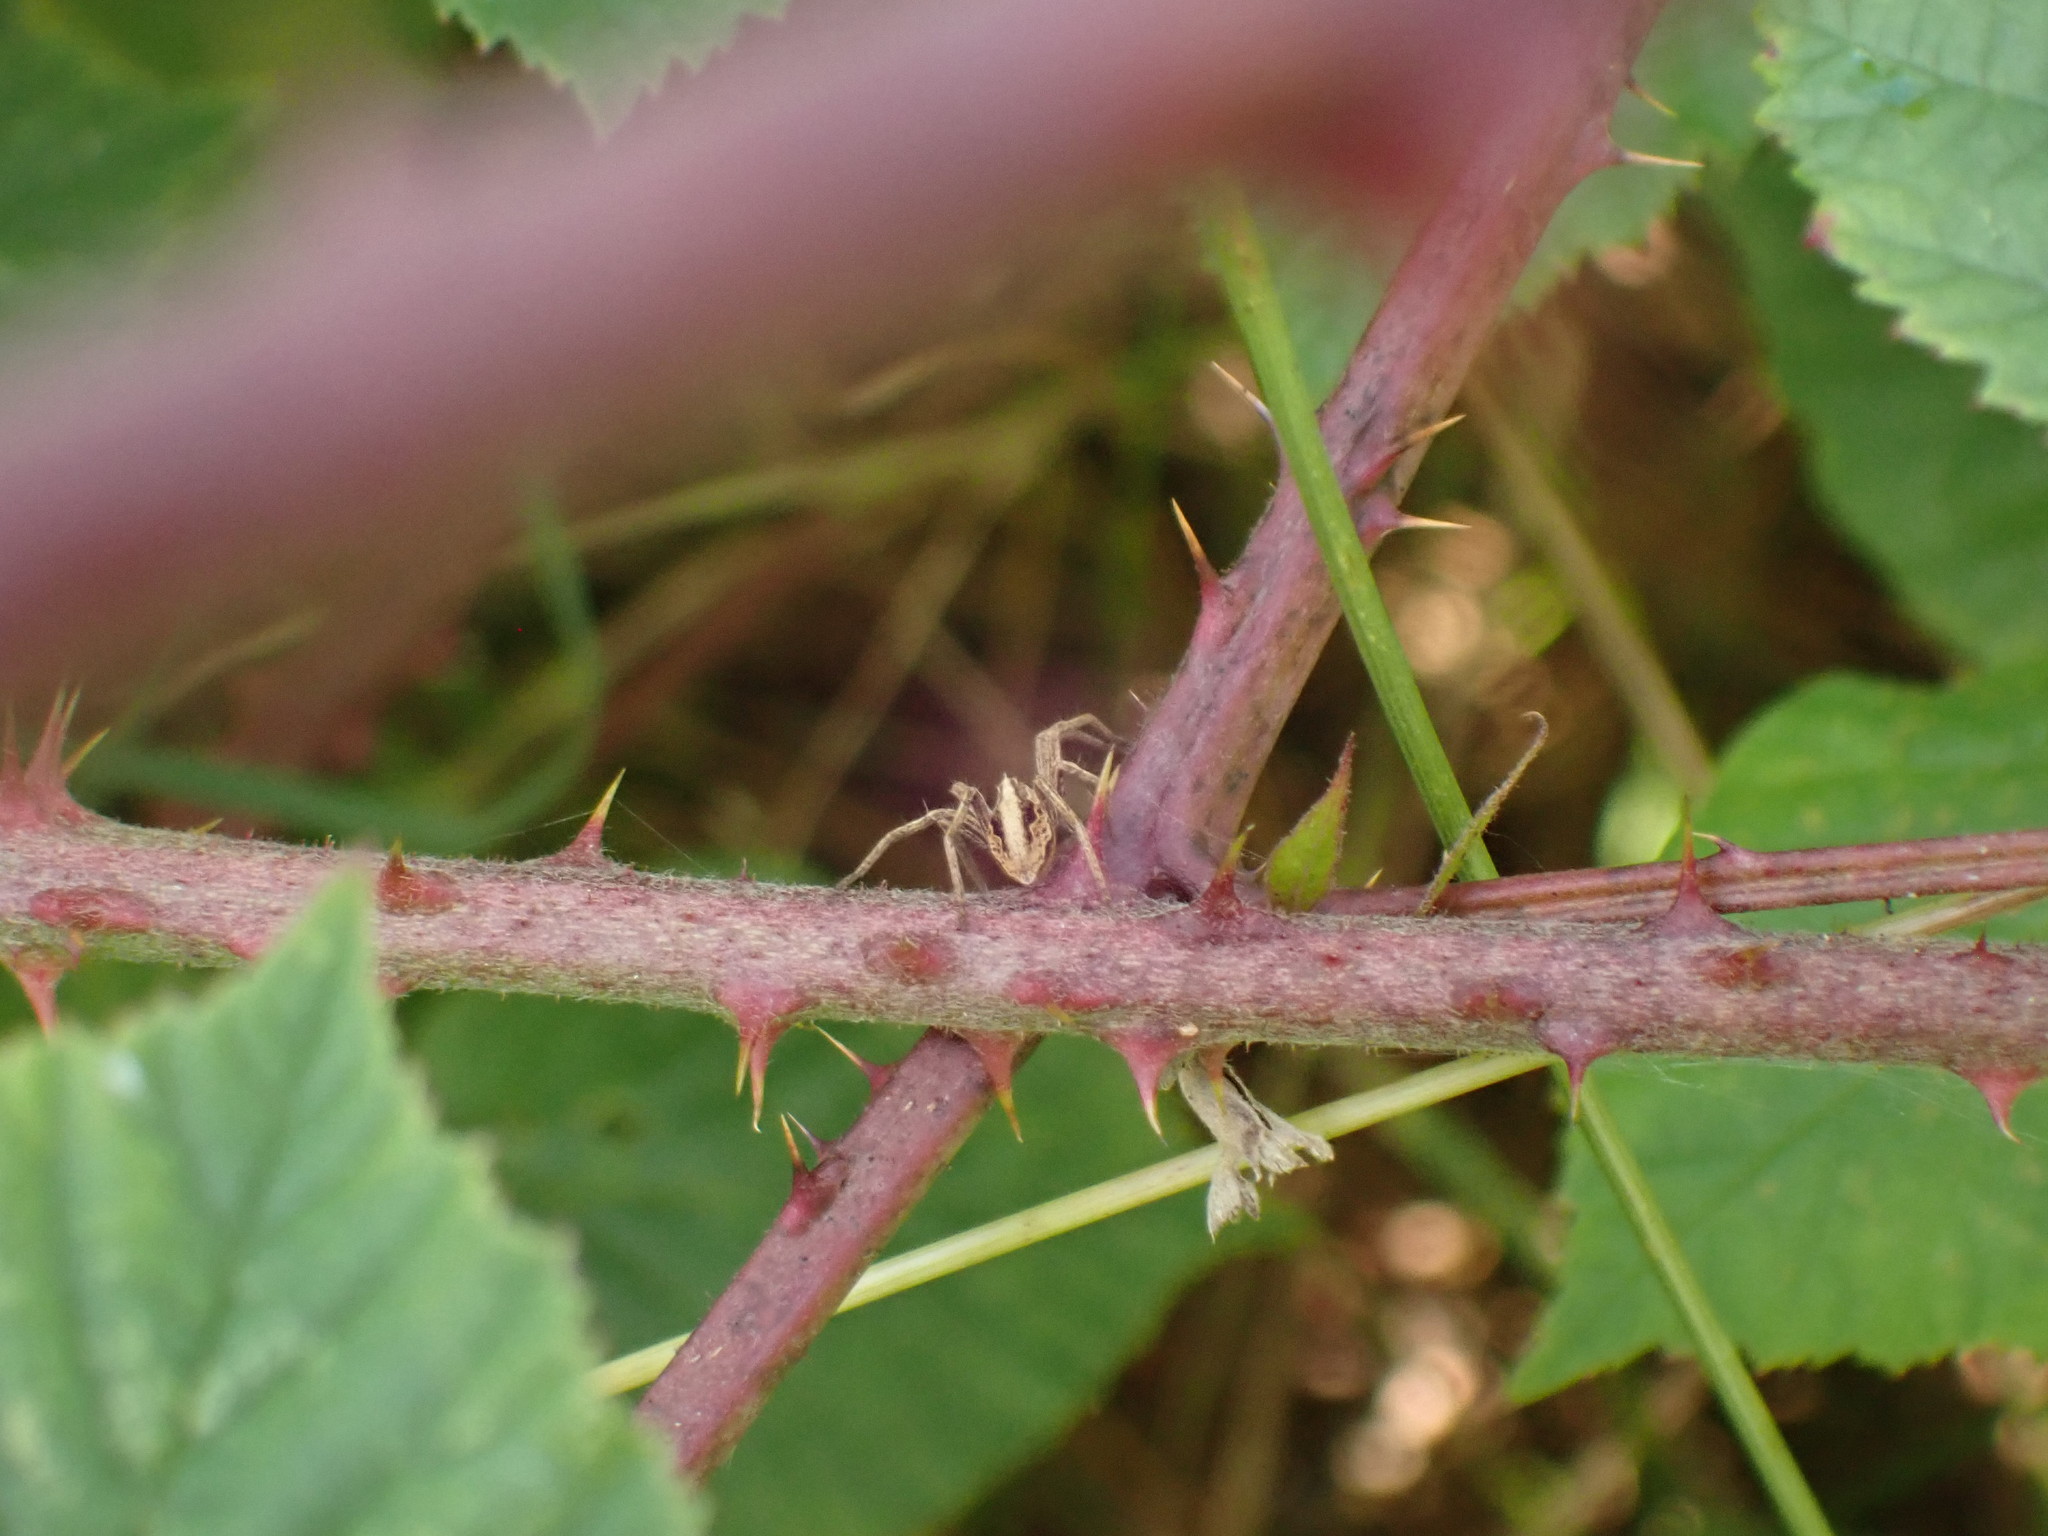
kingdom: Animalia
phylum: Arthropoda
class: Arachnida
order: Araneae
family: Pisauridae
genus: Pisaura
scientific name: Pisaura mirabilis
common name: Tent spider
